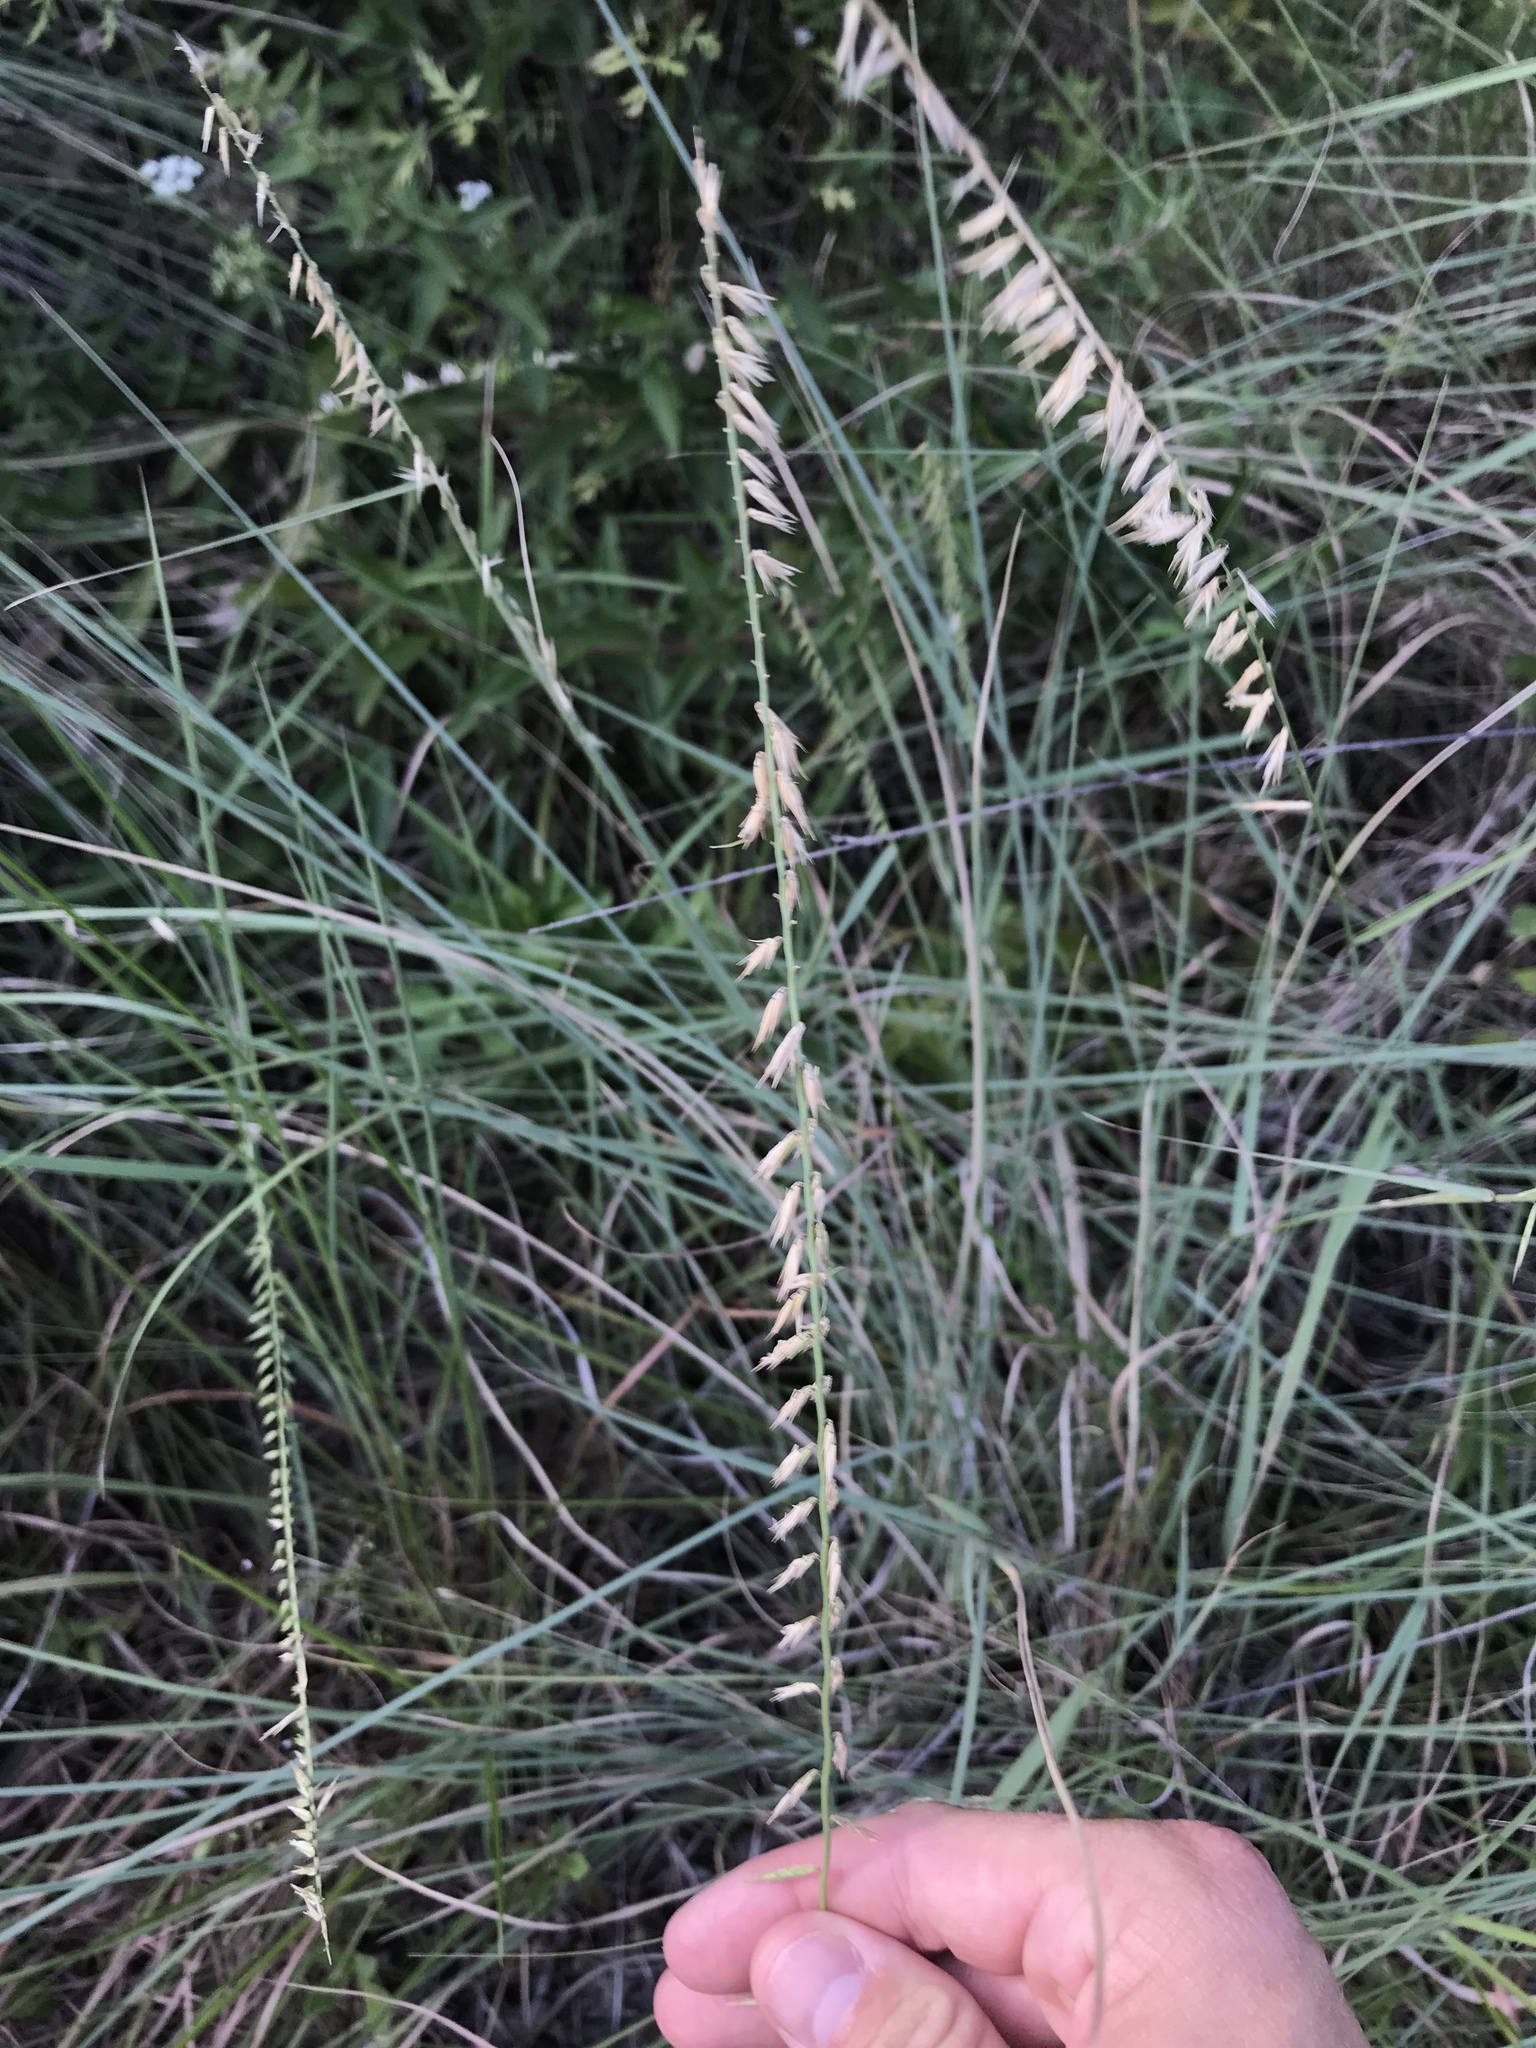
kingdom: Plantae
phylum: Tracheophyta
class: Liliopsida
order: Poales
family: Poaceae
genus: Bouteloua
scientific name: Bouteloua curtipendula
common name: Side-oats grama
